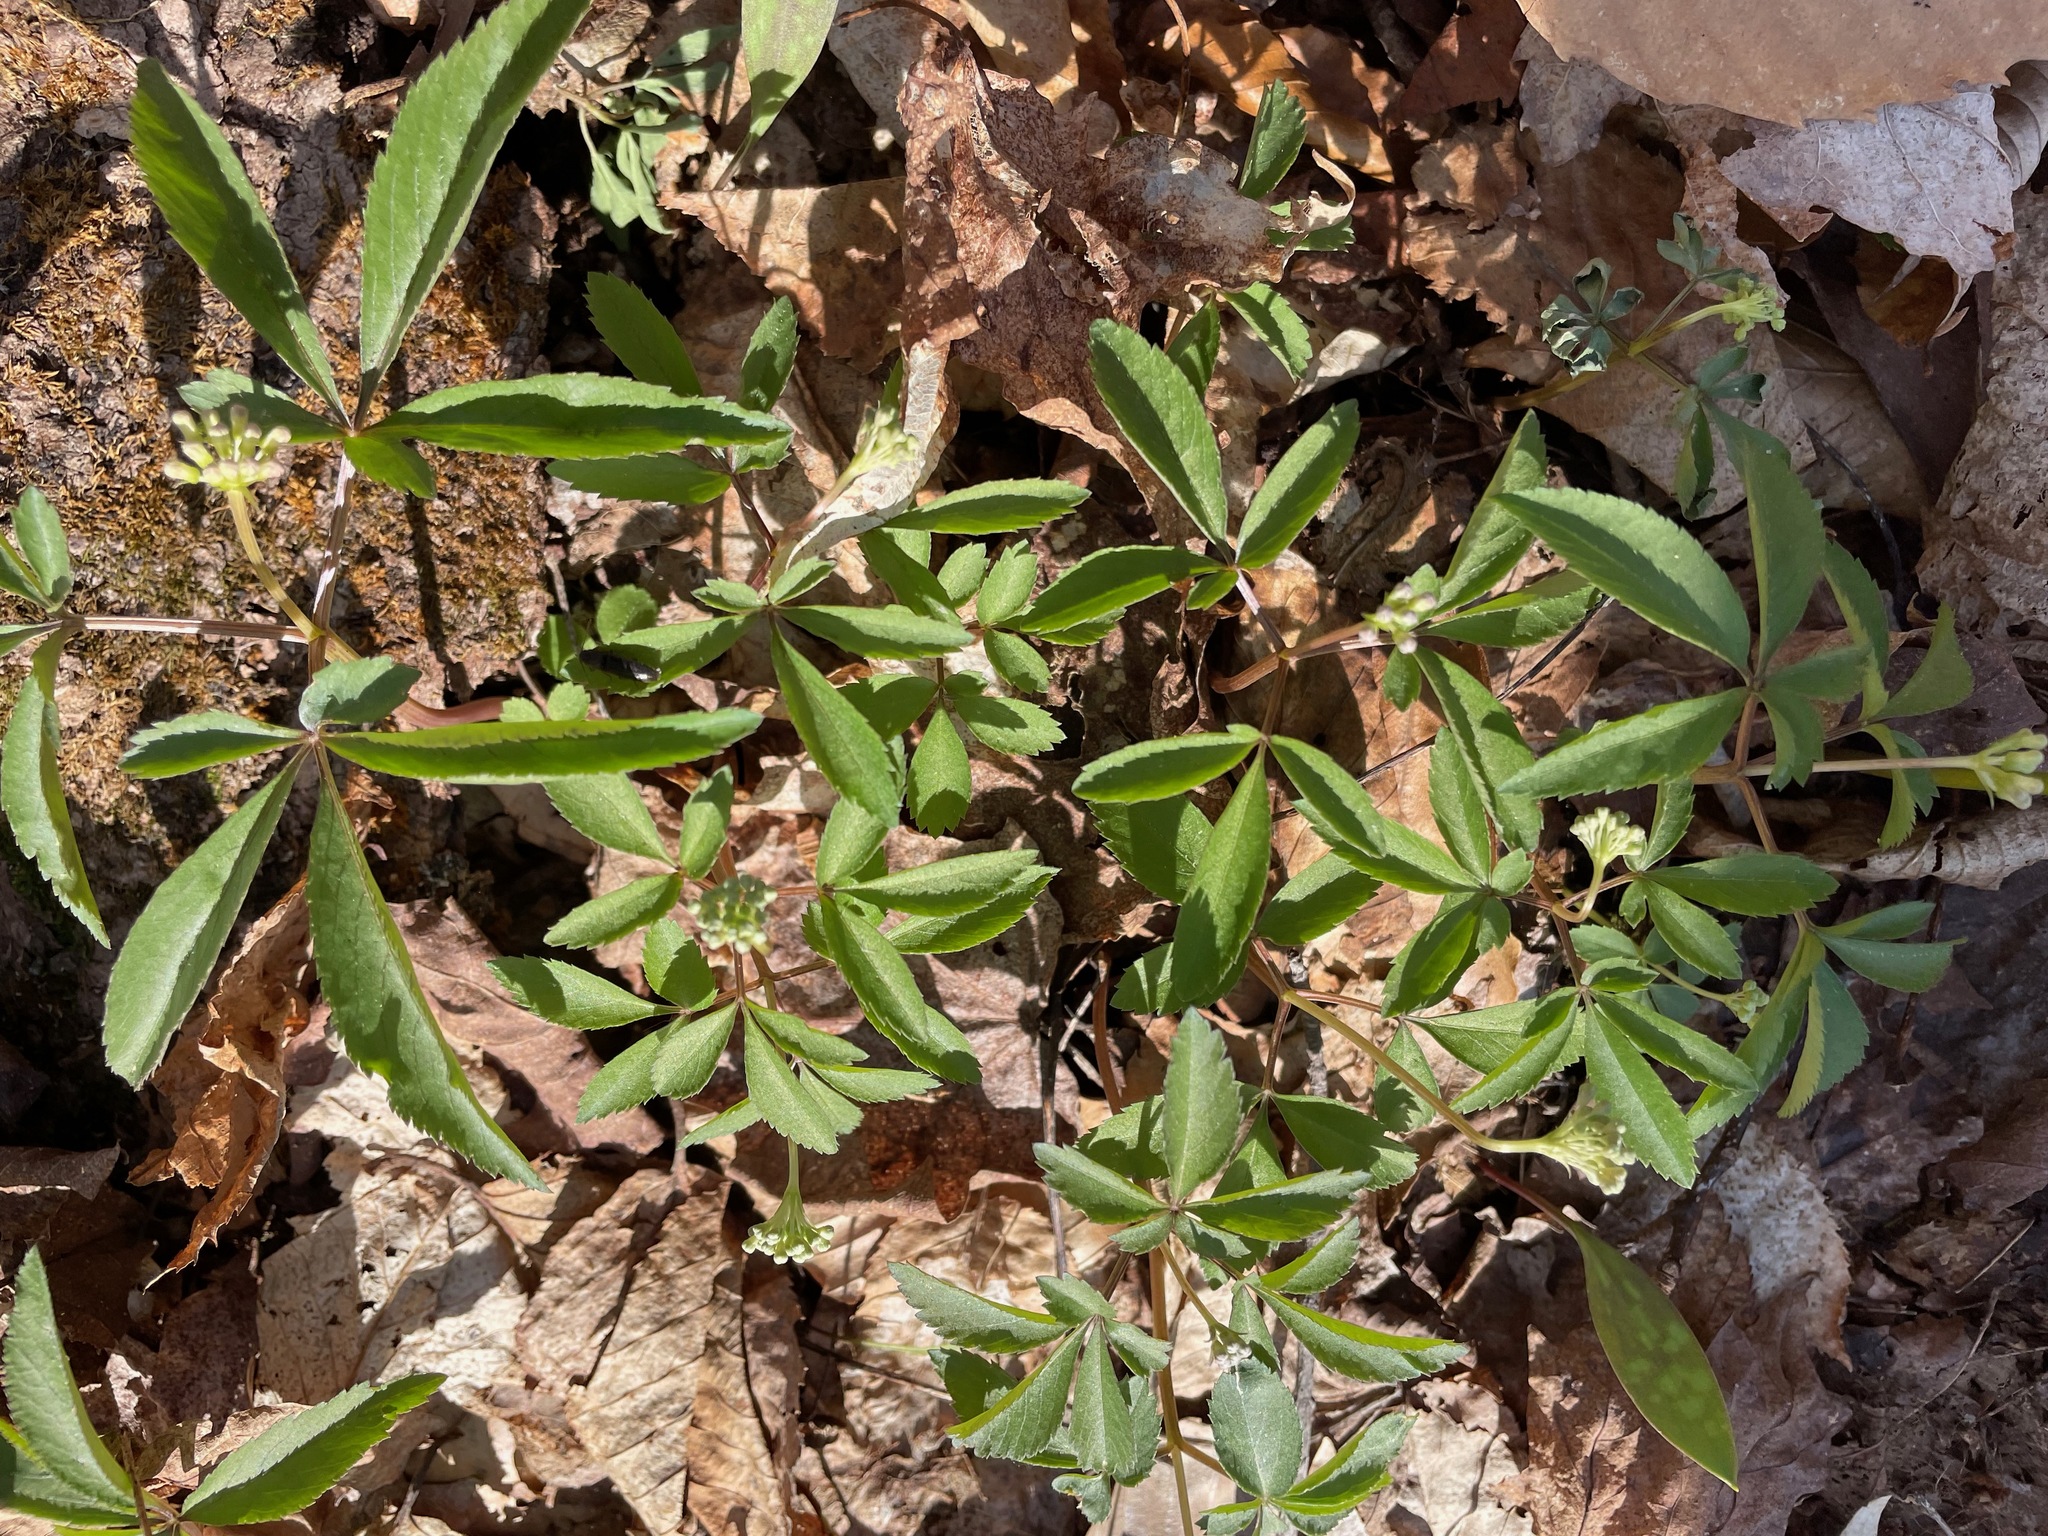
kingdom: Plantae
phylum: Tracheophyta
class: Magnoliopsida
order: Apiales
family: Araliaceae
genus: Panax
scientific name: Panax trifolius
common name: Dwarf ginseng
